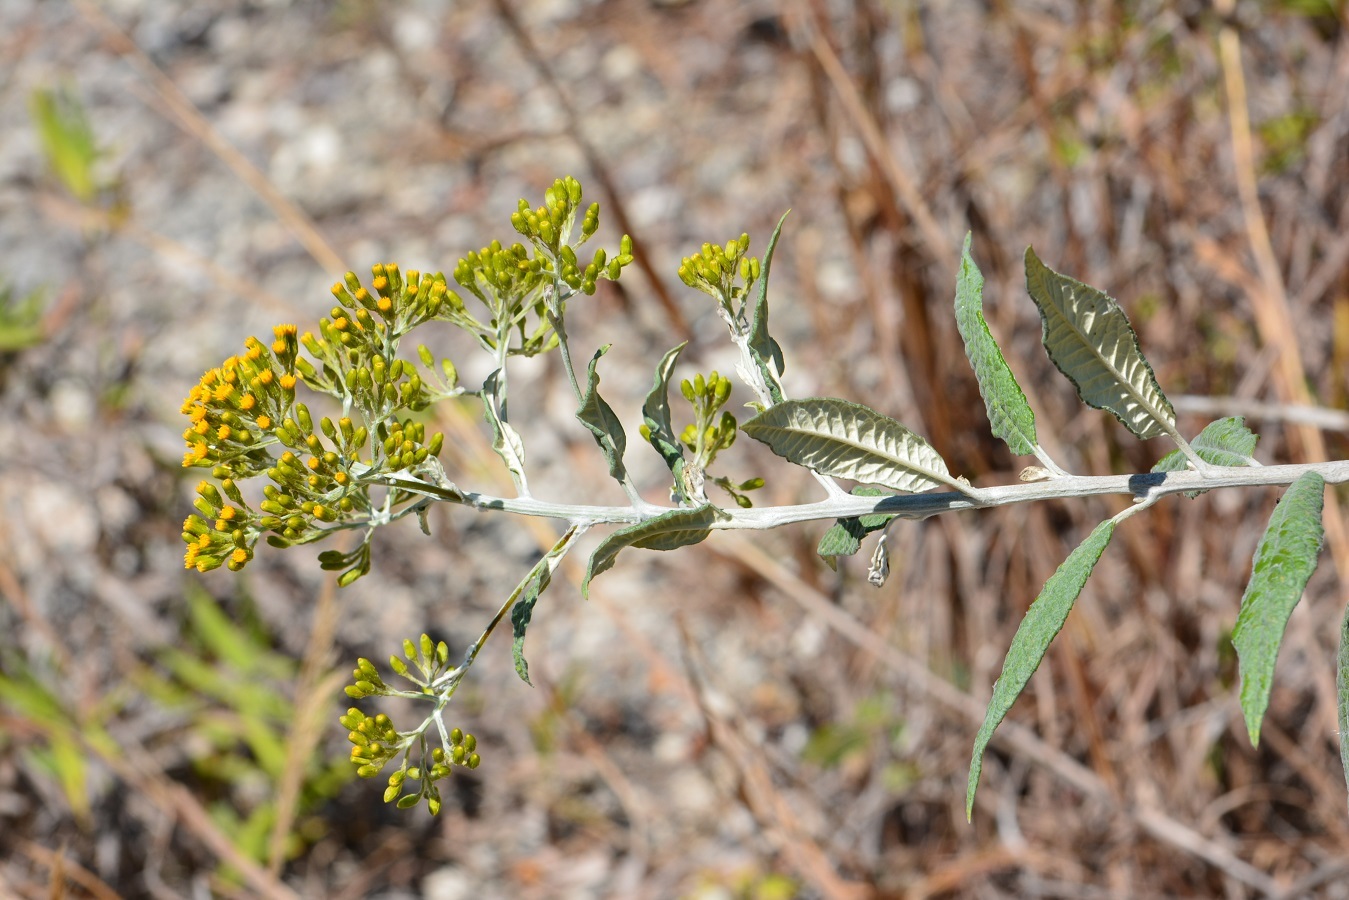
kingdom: Plantae
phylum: Tracheophyta
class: Magnoliopsida
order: Asterales
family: Asteraceae
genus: Zemisia
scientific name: Zemisia thomasii
